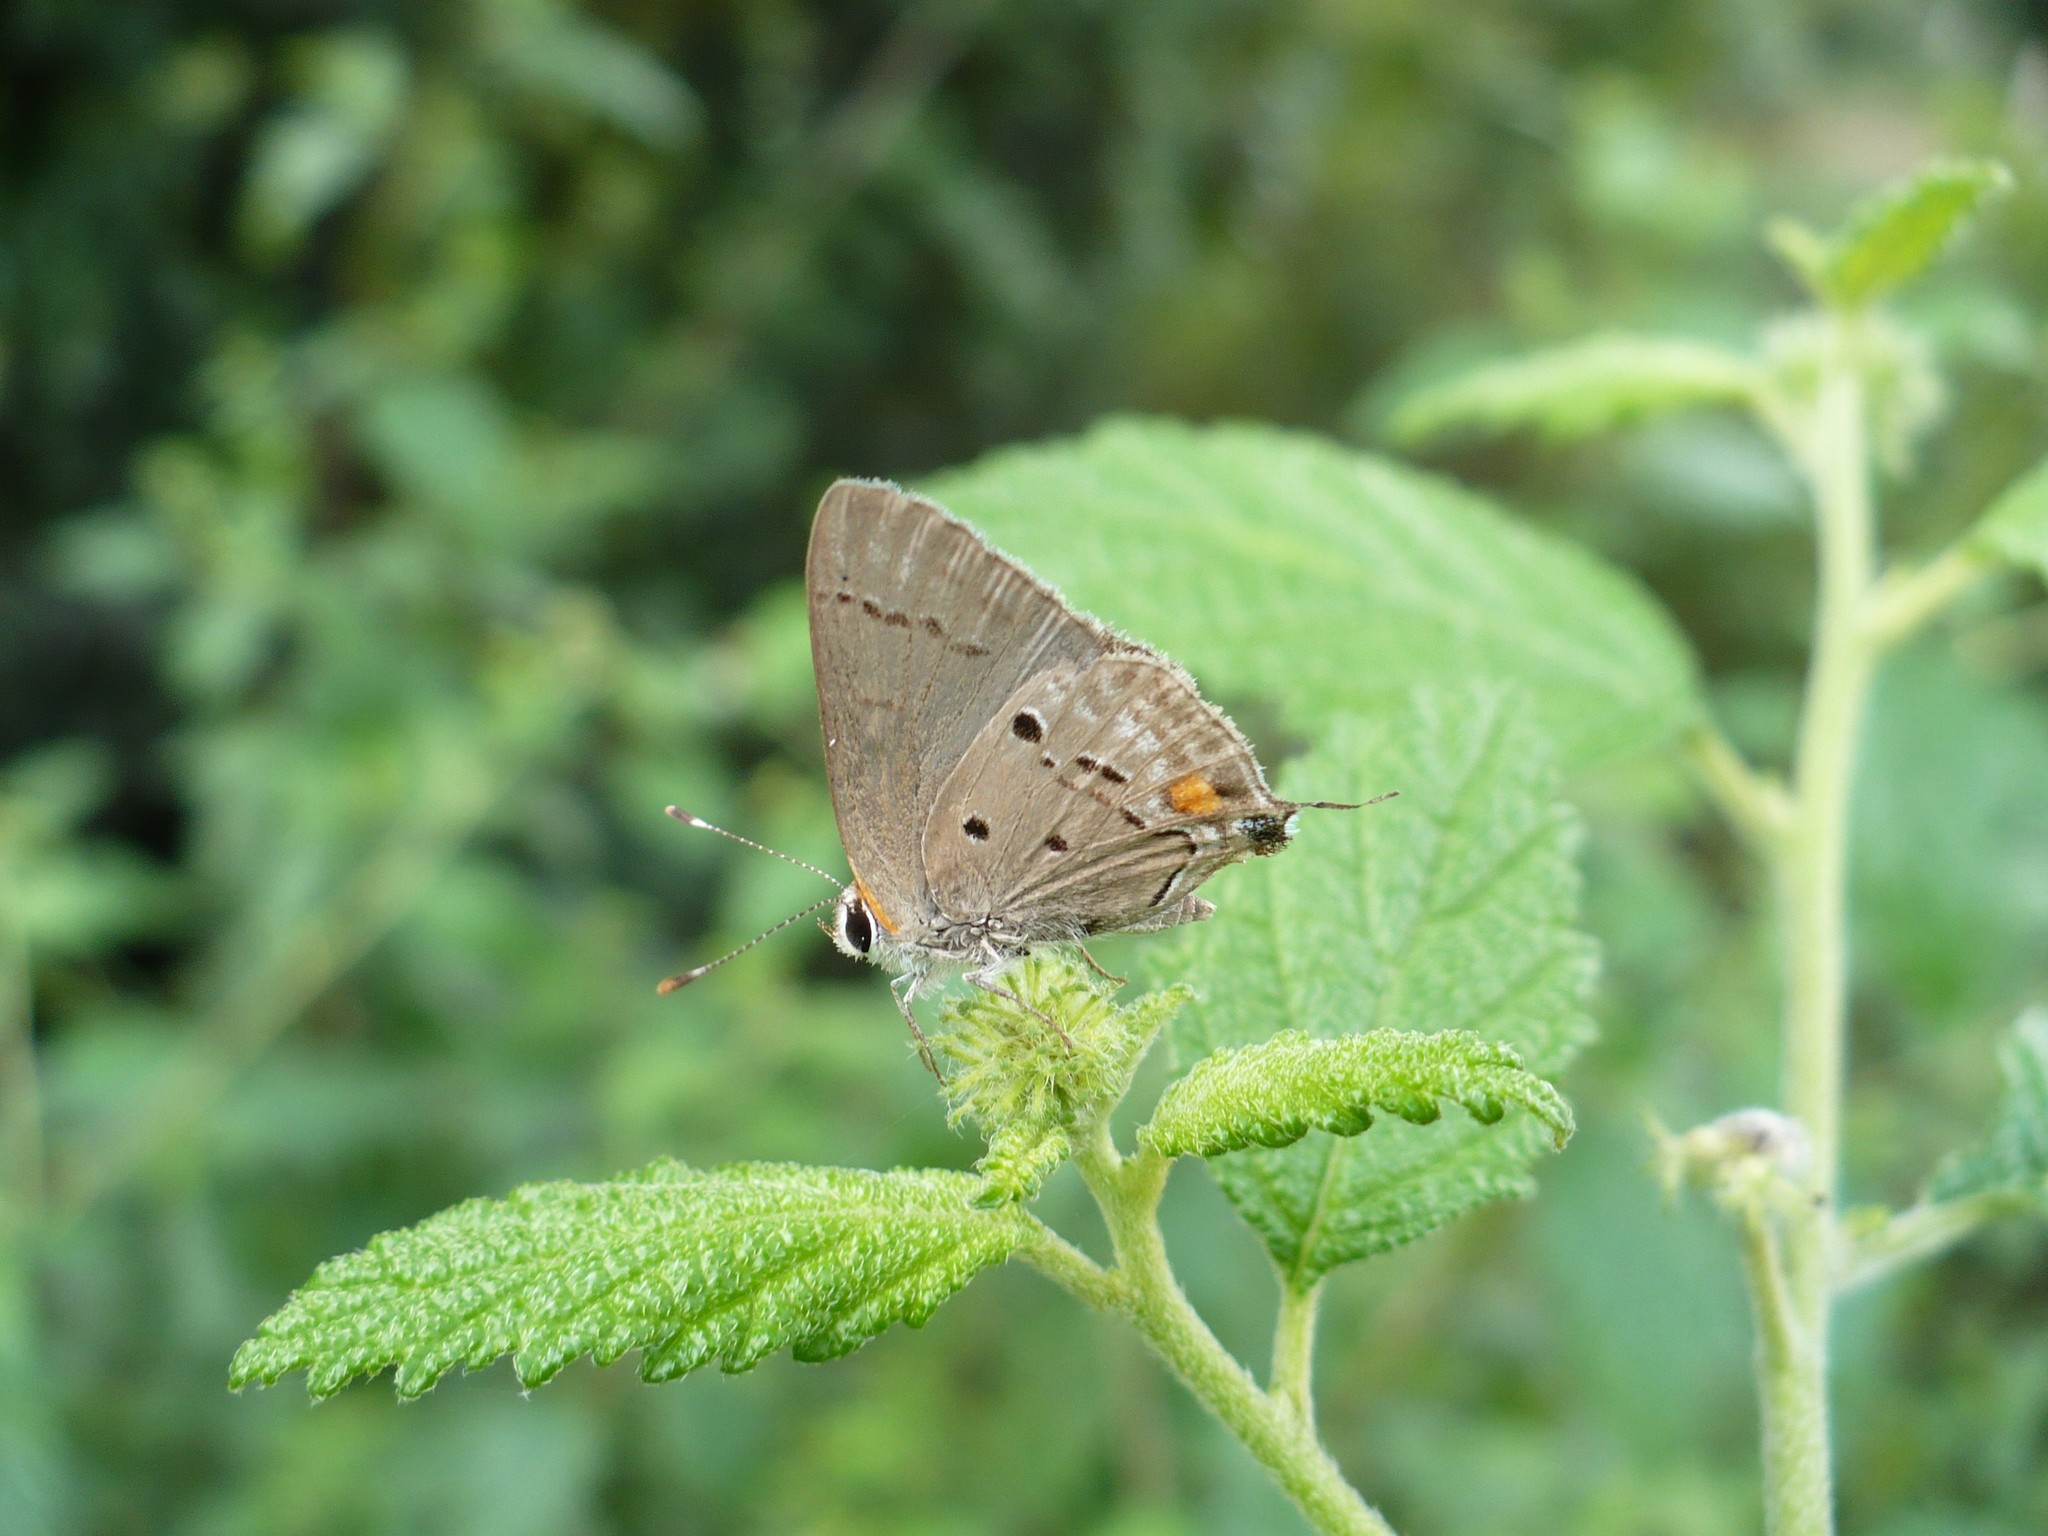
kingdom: Animalia
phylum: Arthropoda
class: Insecta
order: Lepidoptera
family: Lycaenidae
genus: Thecla
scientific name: Thecla limenia
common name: Hairstreak moth
